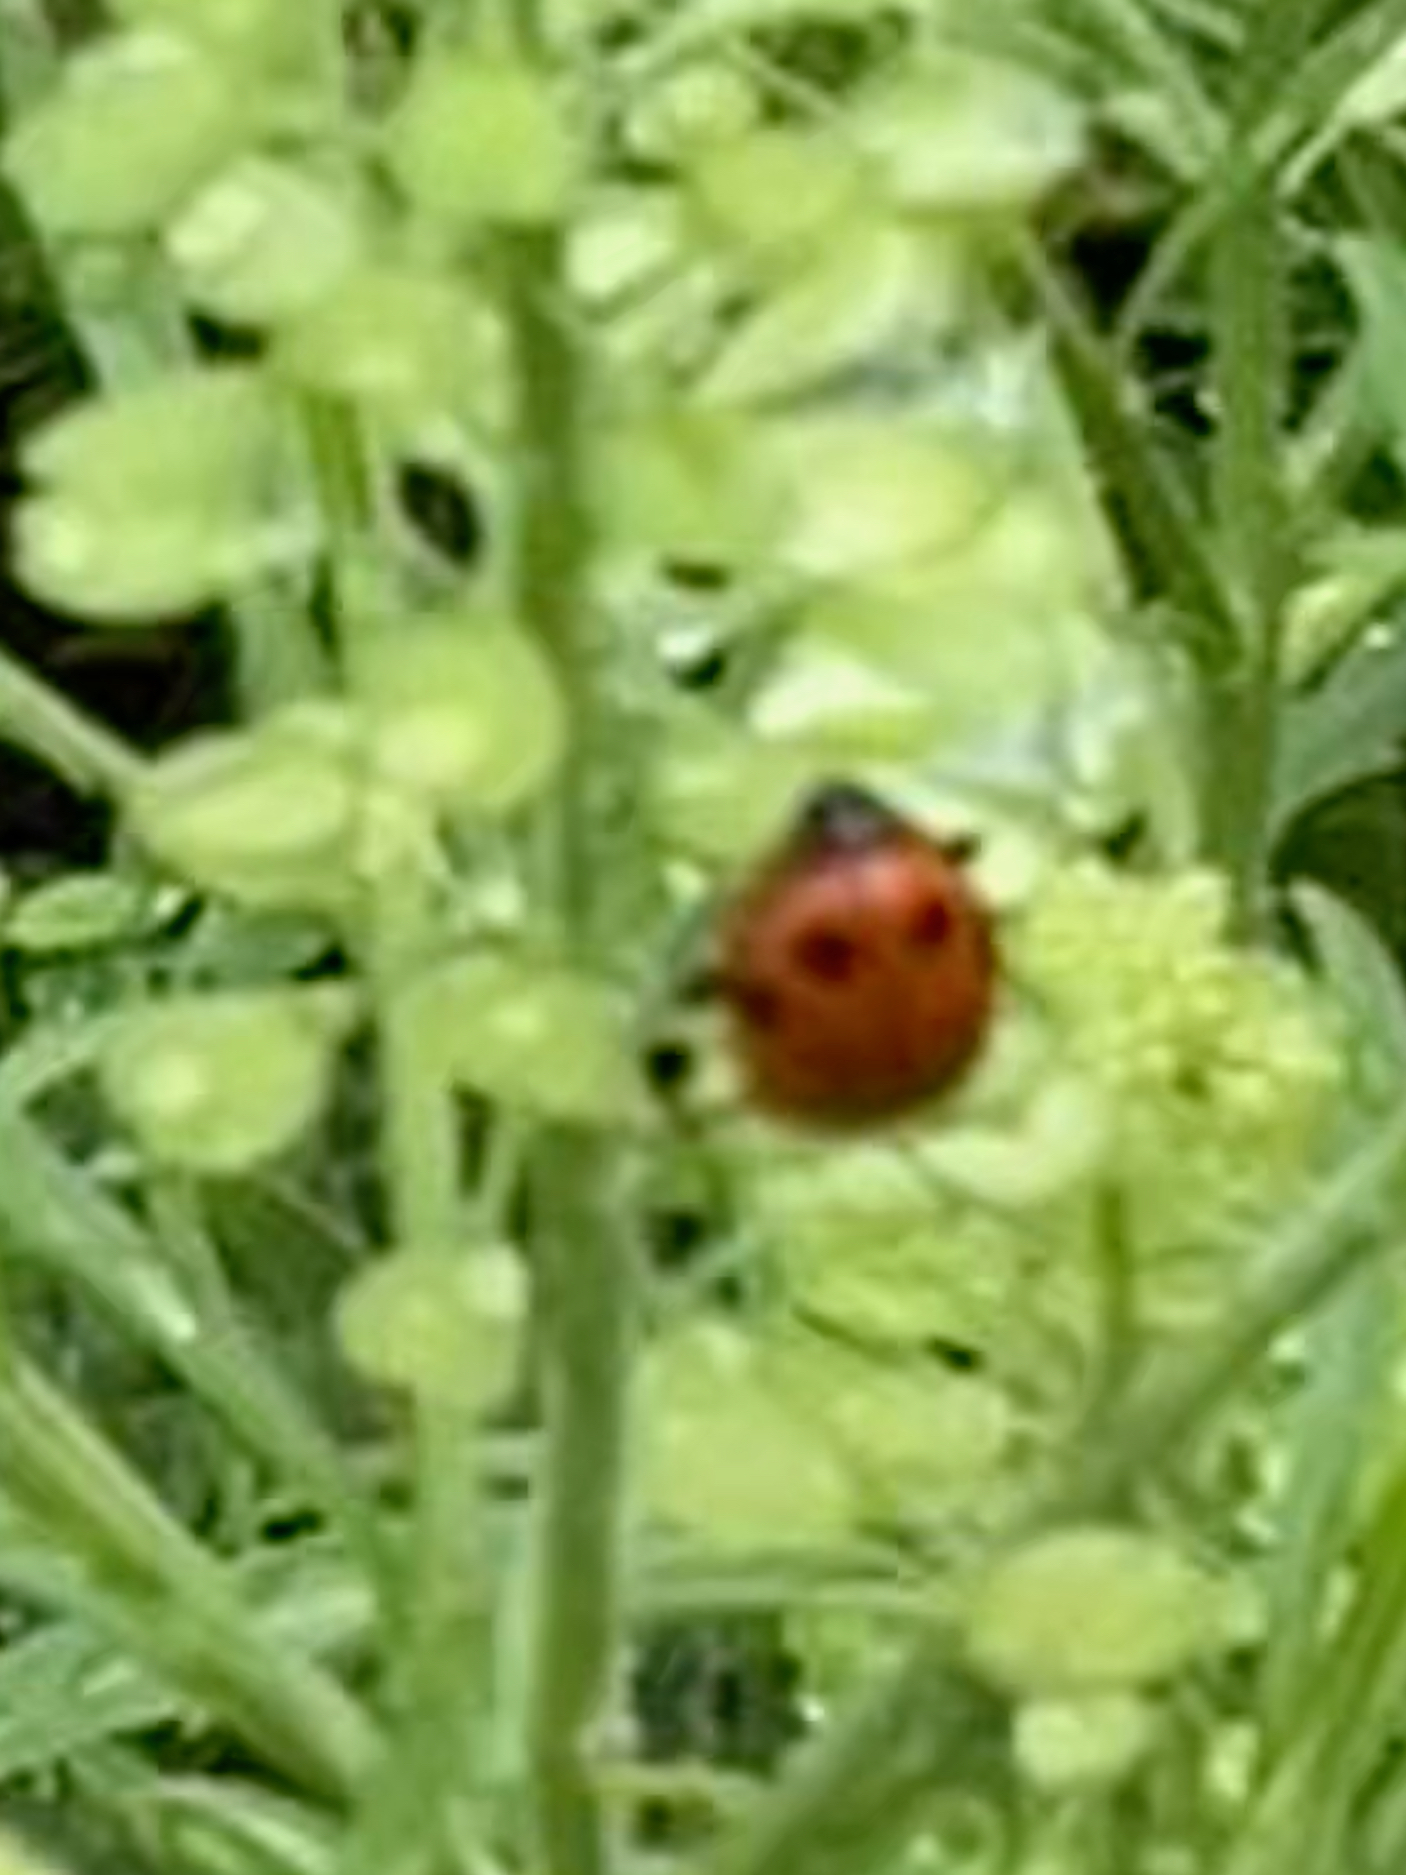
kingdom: Animalia
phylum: Arthropoda
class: Insecta
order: Coleoptera
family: Coccinellidae
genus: Hippodamia
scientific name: Hippodamia convergens
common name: Convergent lady beetle
